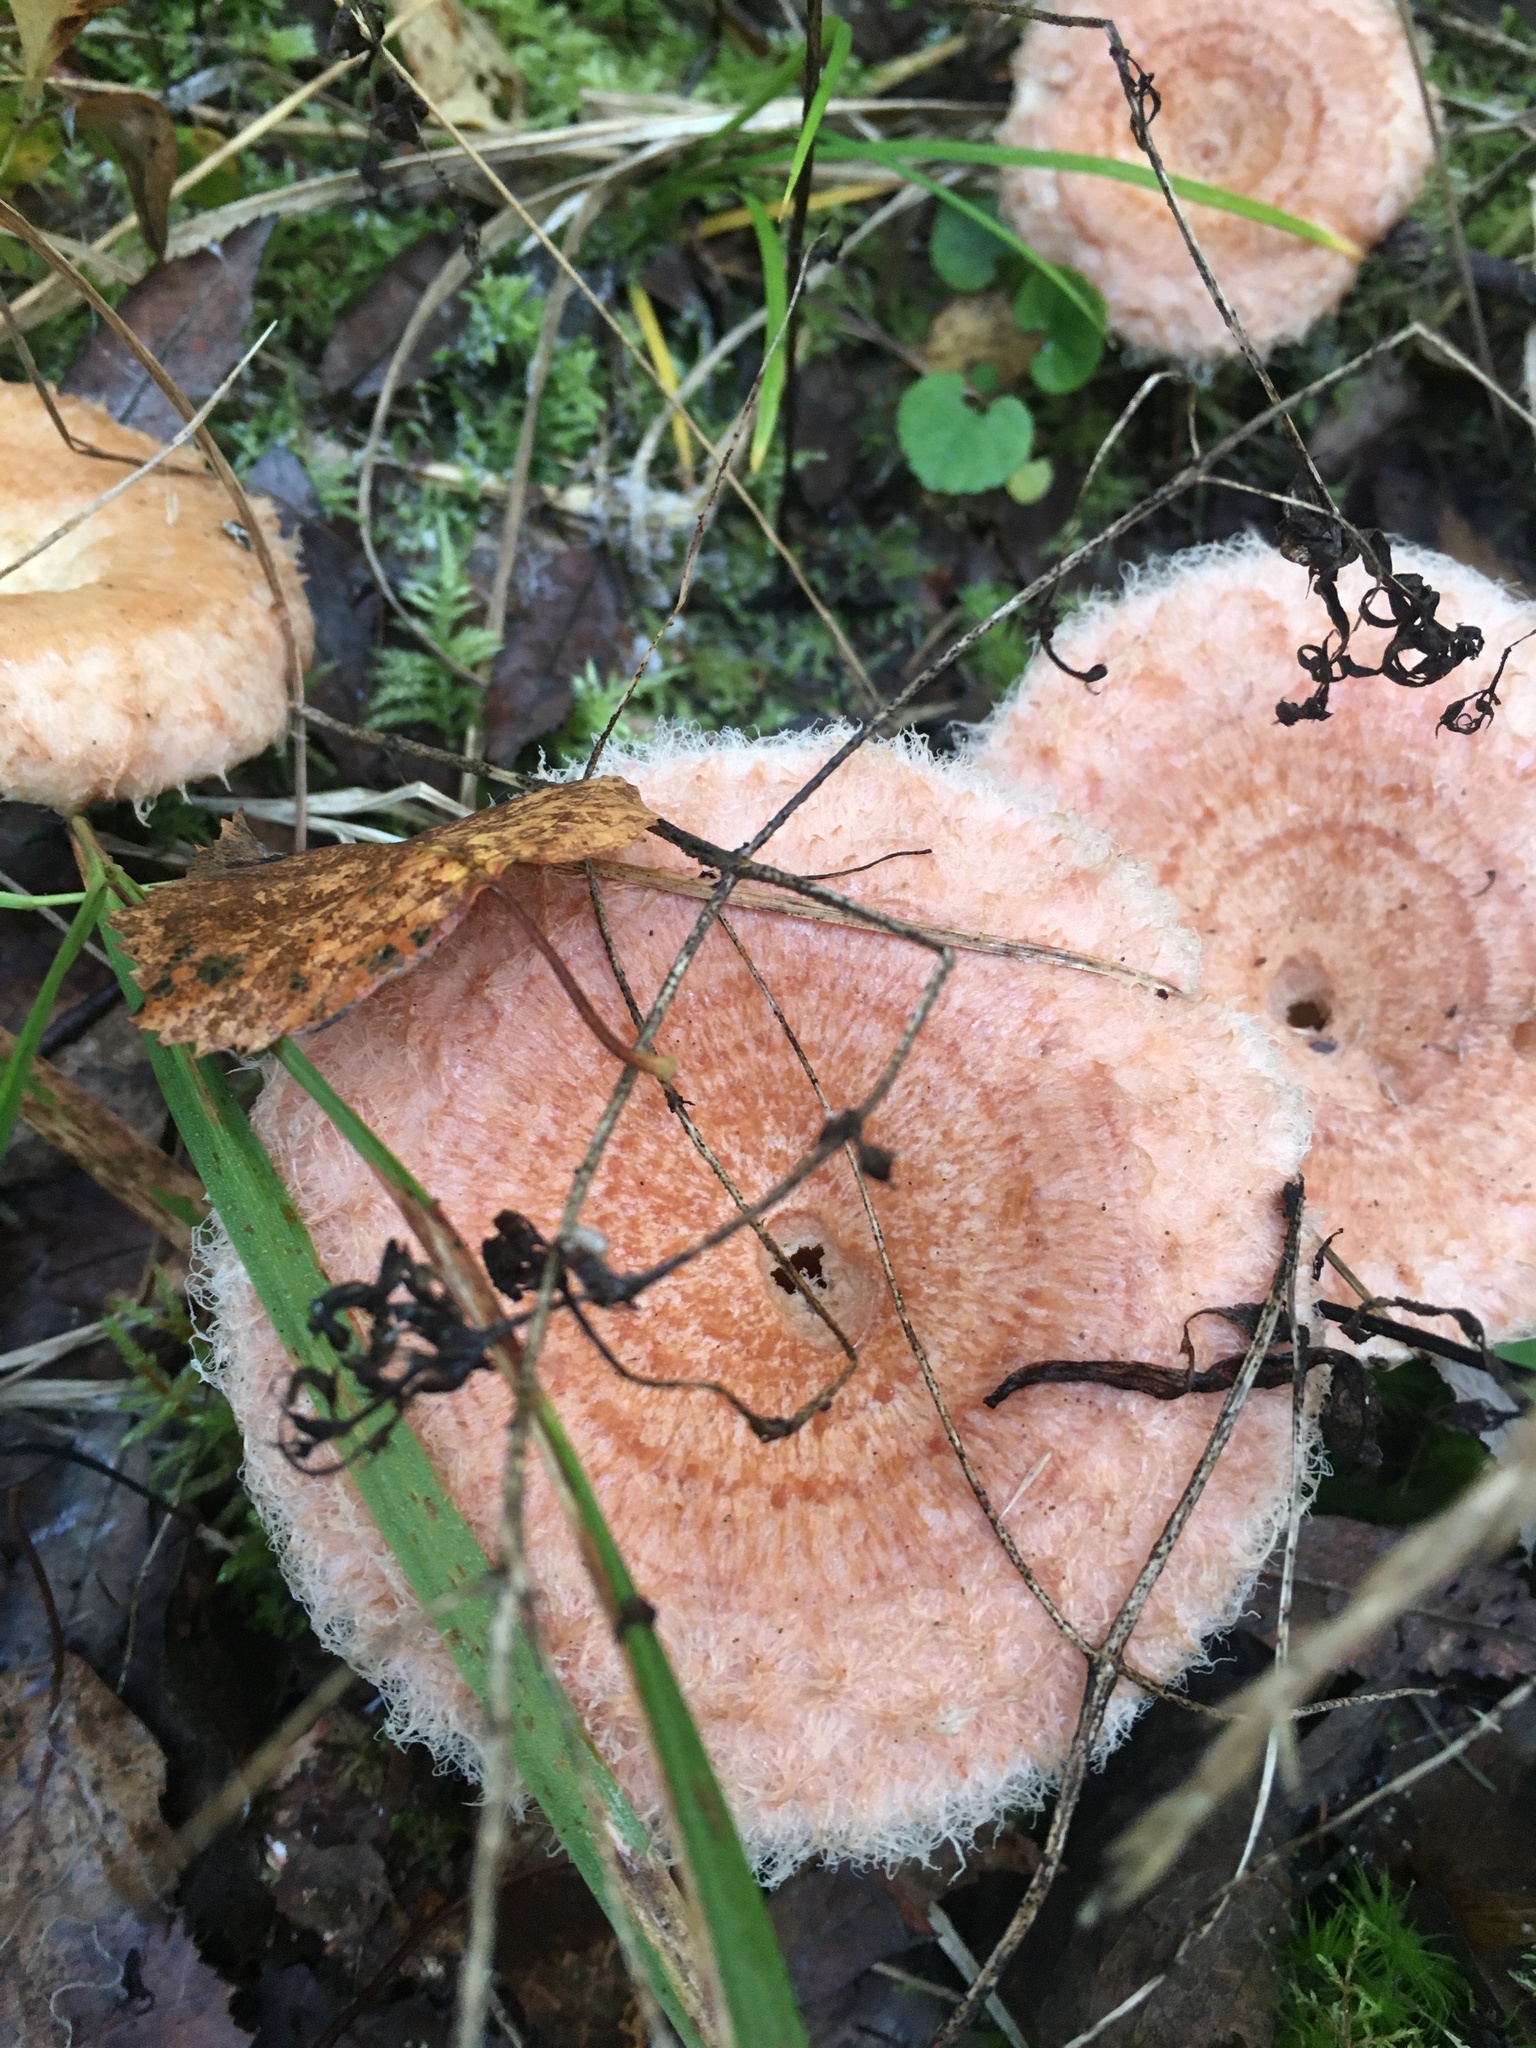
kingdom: Fungi
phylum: Basidiomycota
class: Agaricomycetes
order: Russulales
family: Russulaceae
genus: Lactarius
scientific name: Lactarius torminosus
